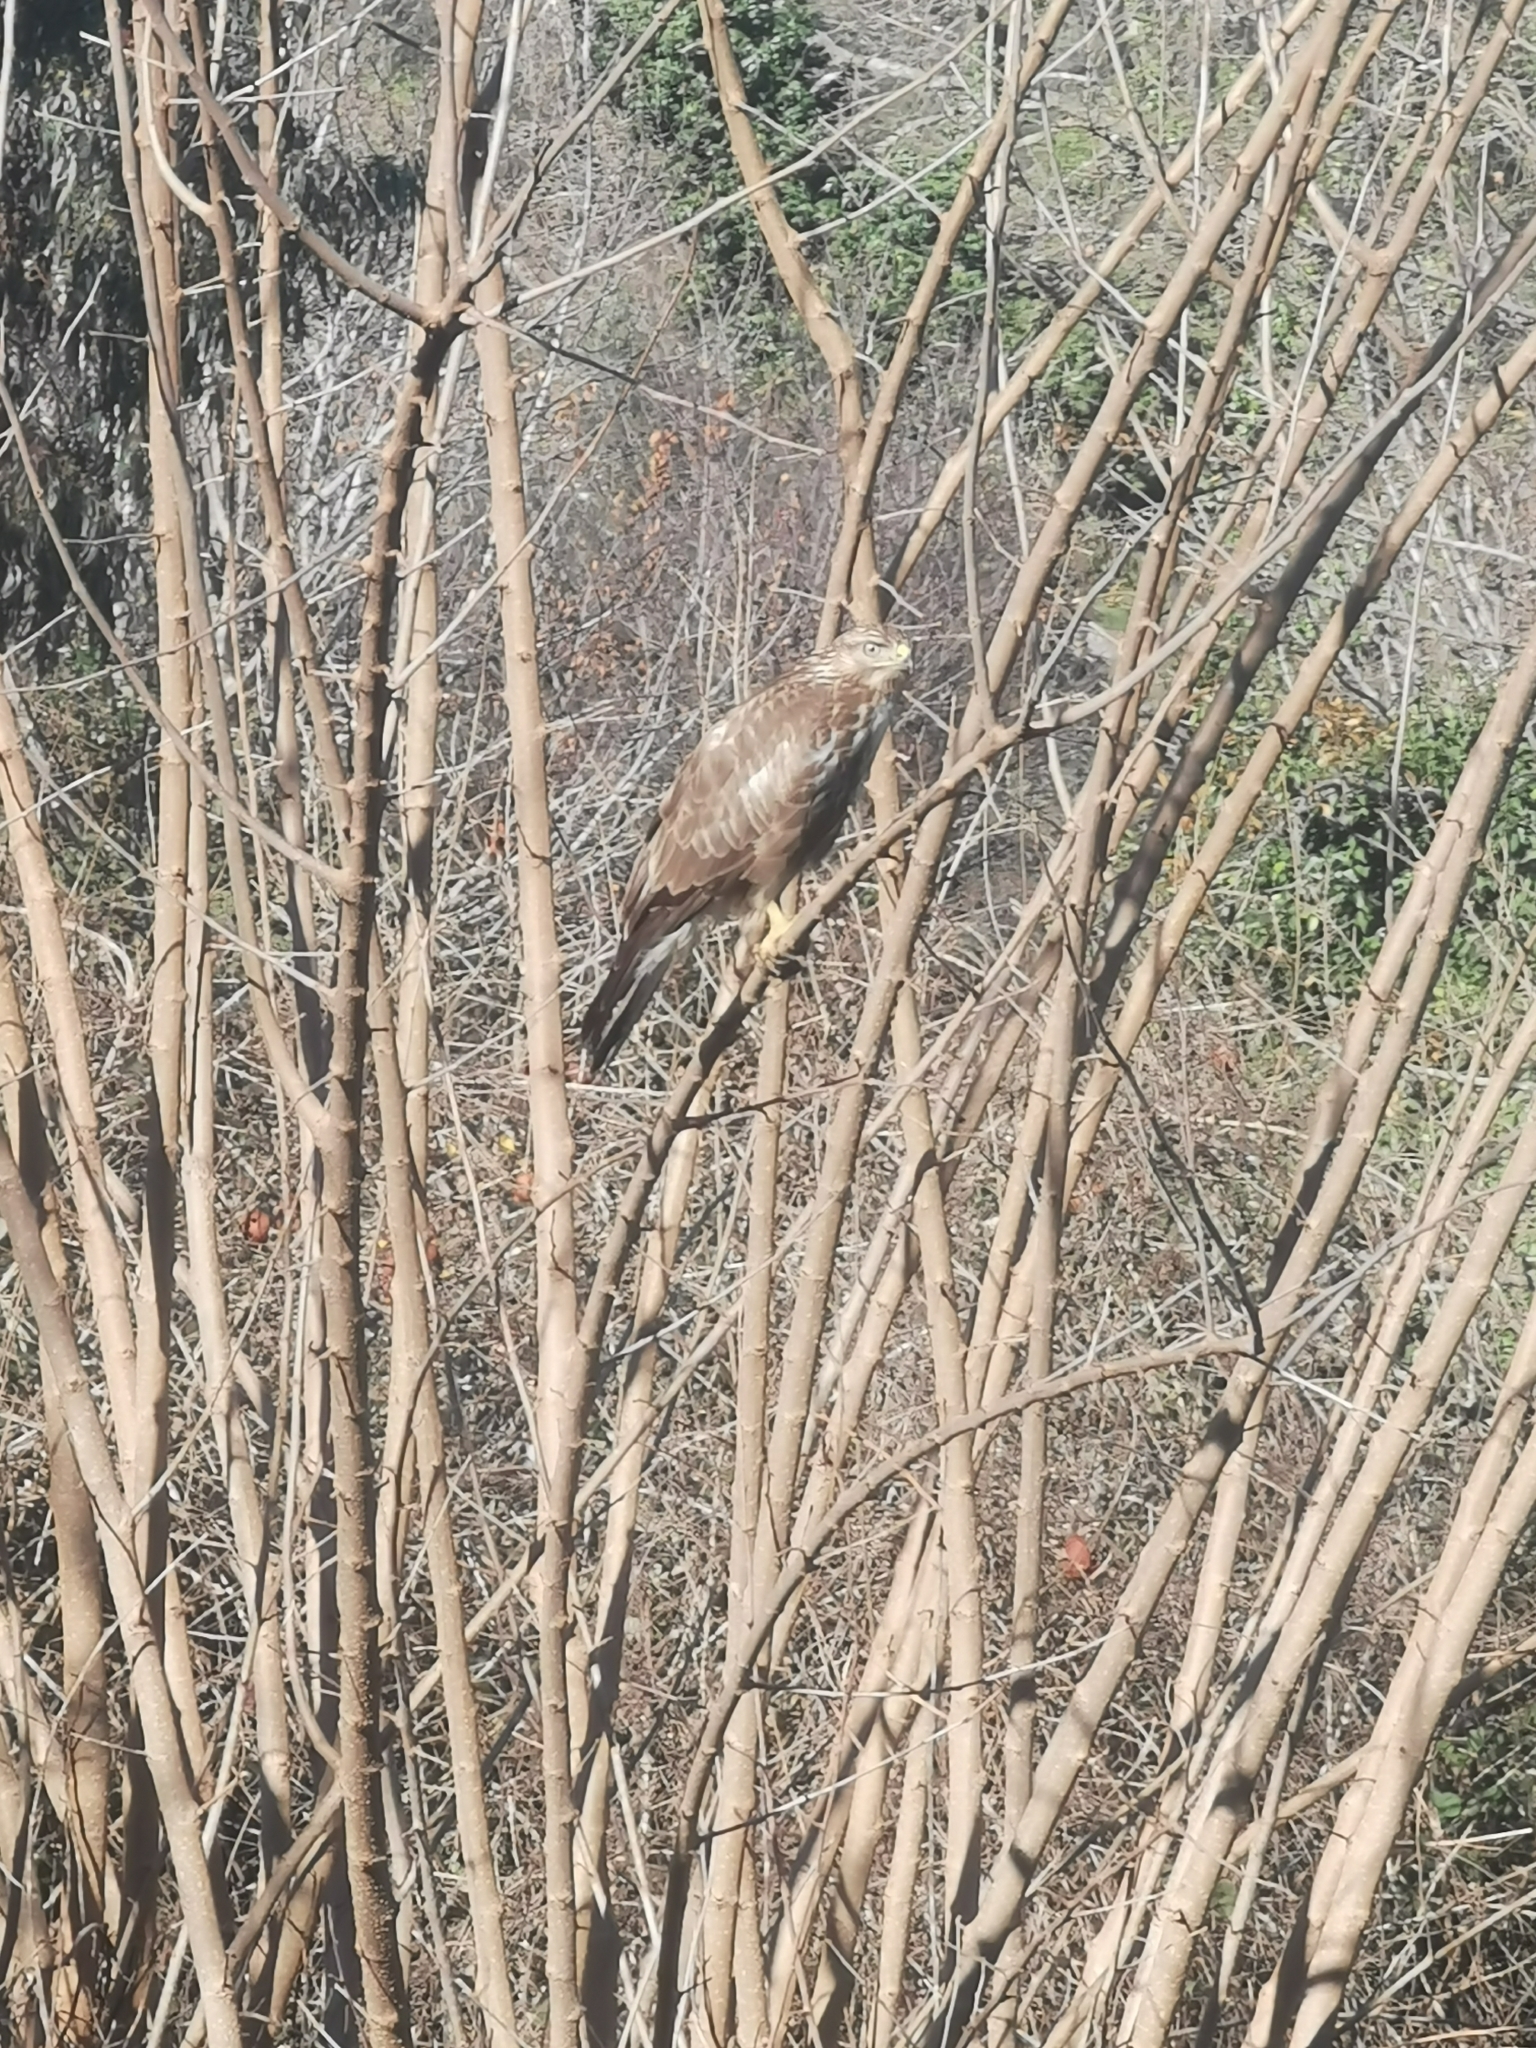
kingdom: Animalia
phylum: Chordata
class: Aves
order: Accipitriformes
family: Accipitridae
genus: Buteo
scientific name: Buteo buteo
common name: Common buzzard
